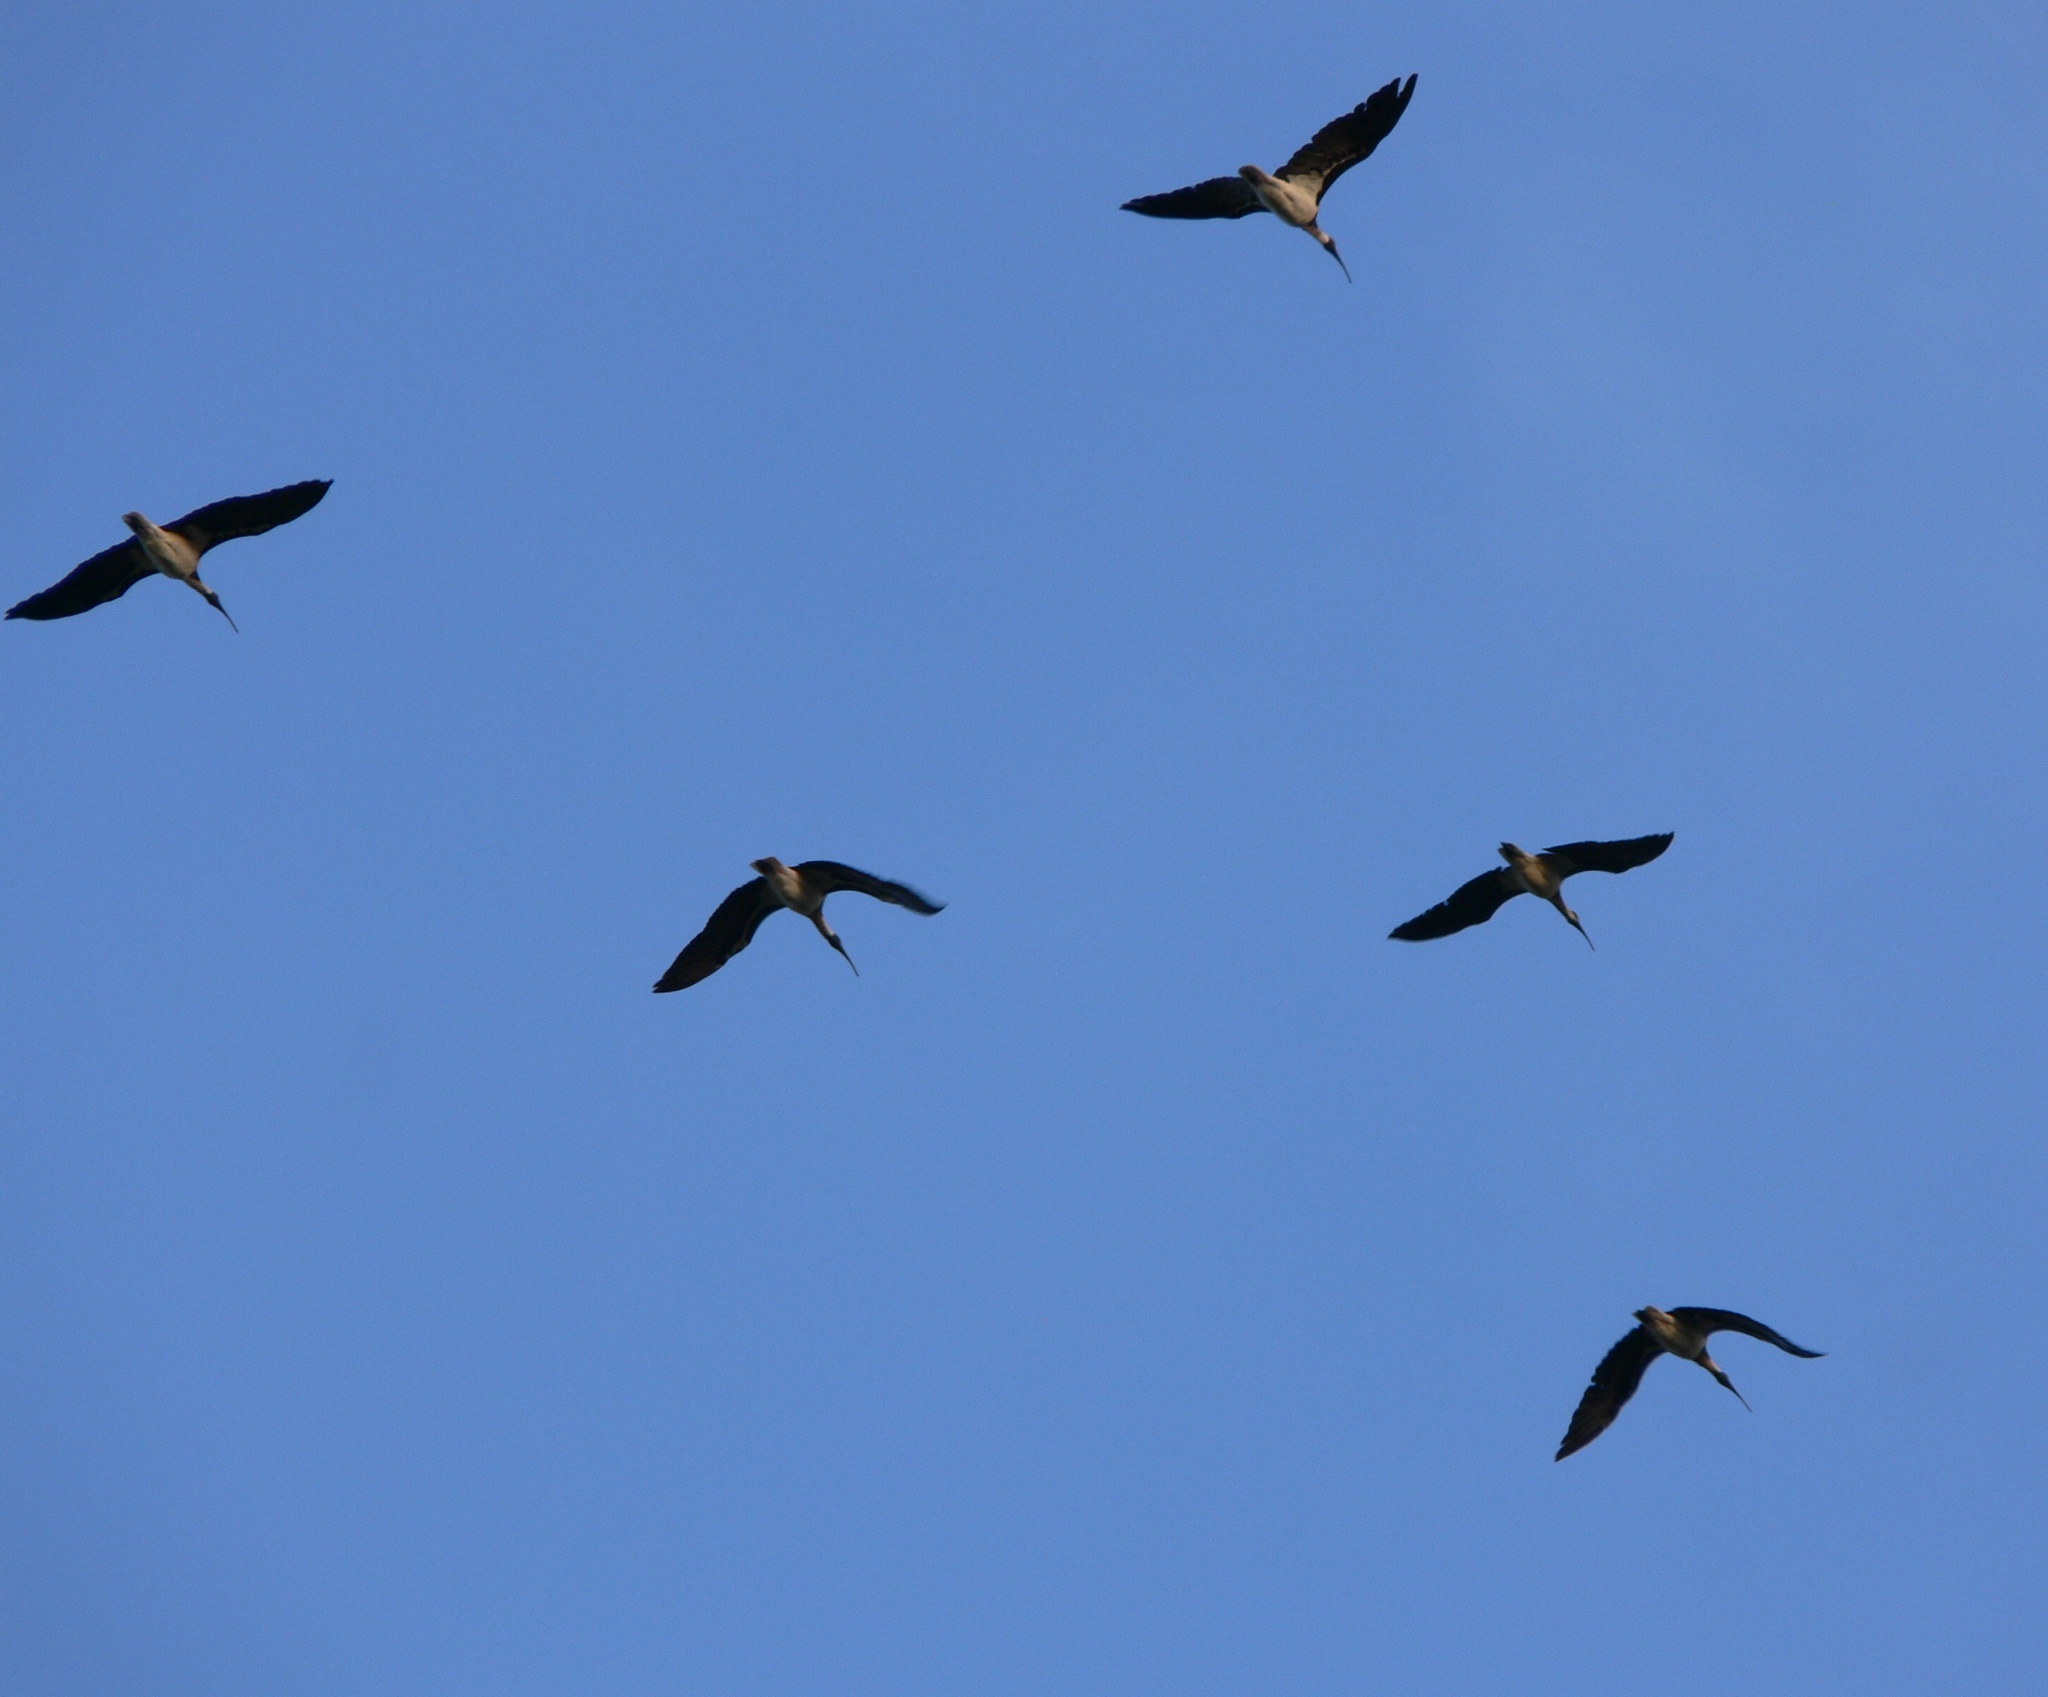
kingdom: Animalia
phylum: Chordata
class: Aves
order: Pelecaniformes
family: Threskiornithidae
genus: Threskiornis
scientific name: Threskiornis spinicollis
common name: Straw-necked ibis
